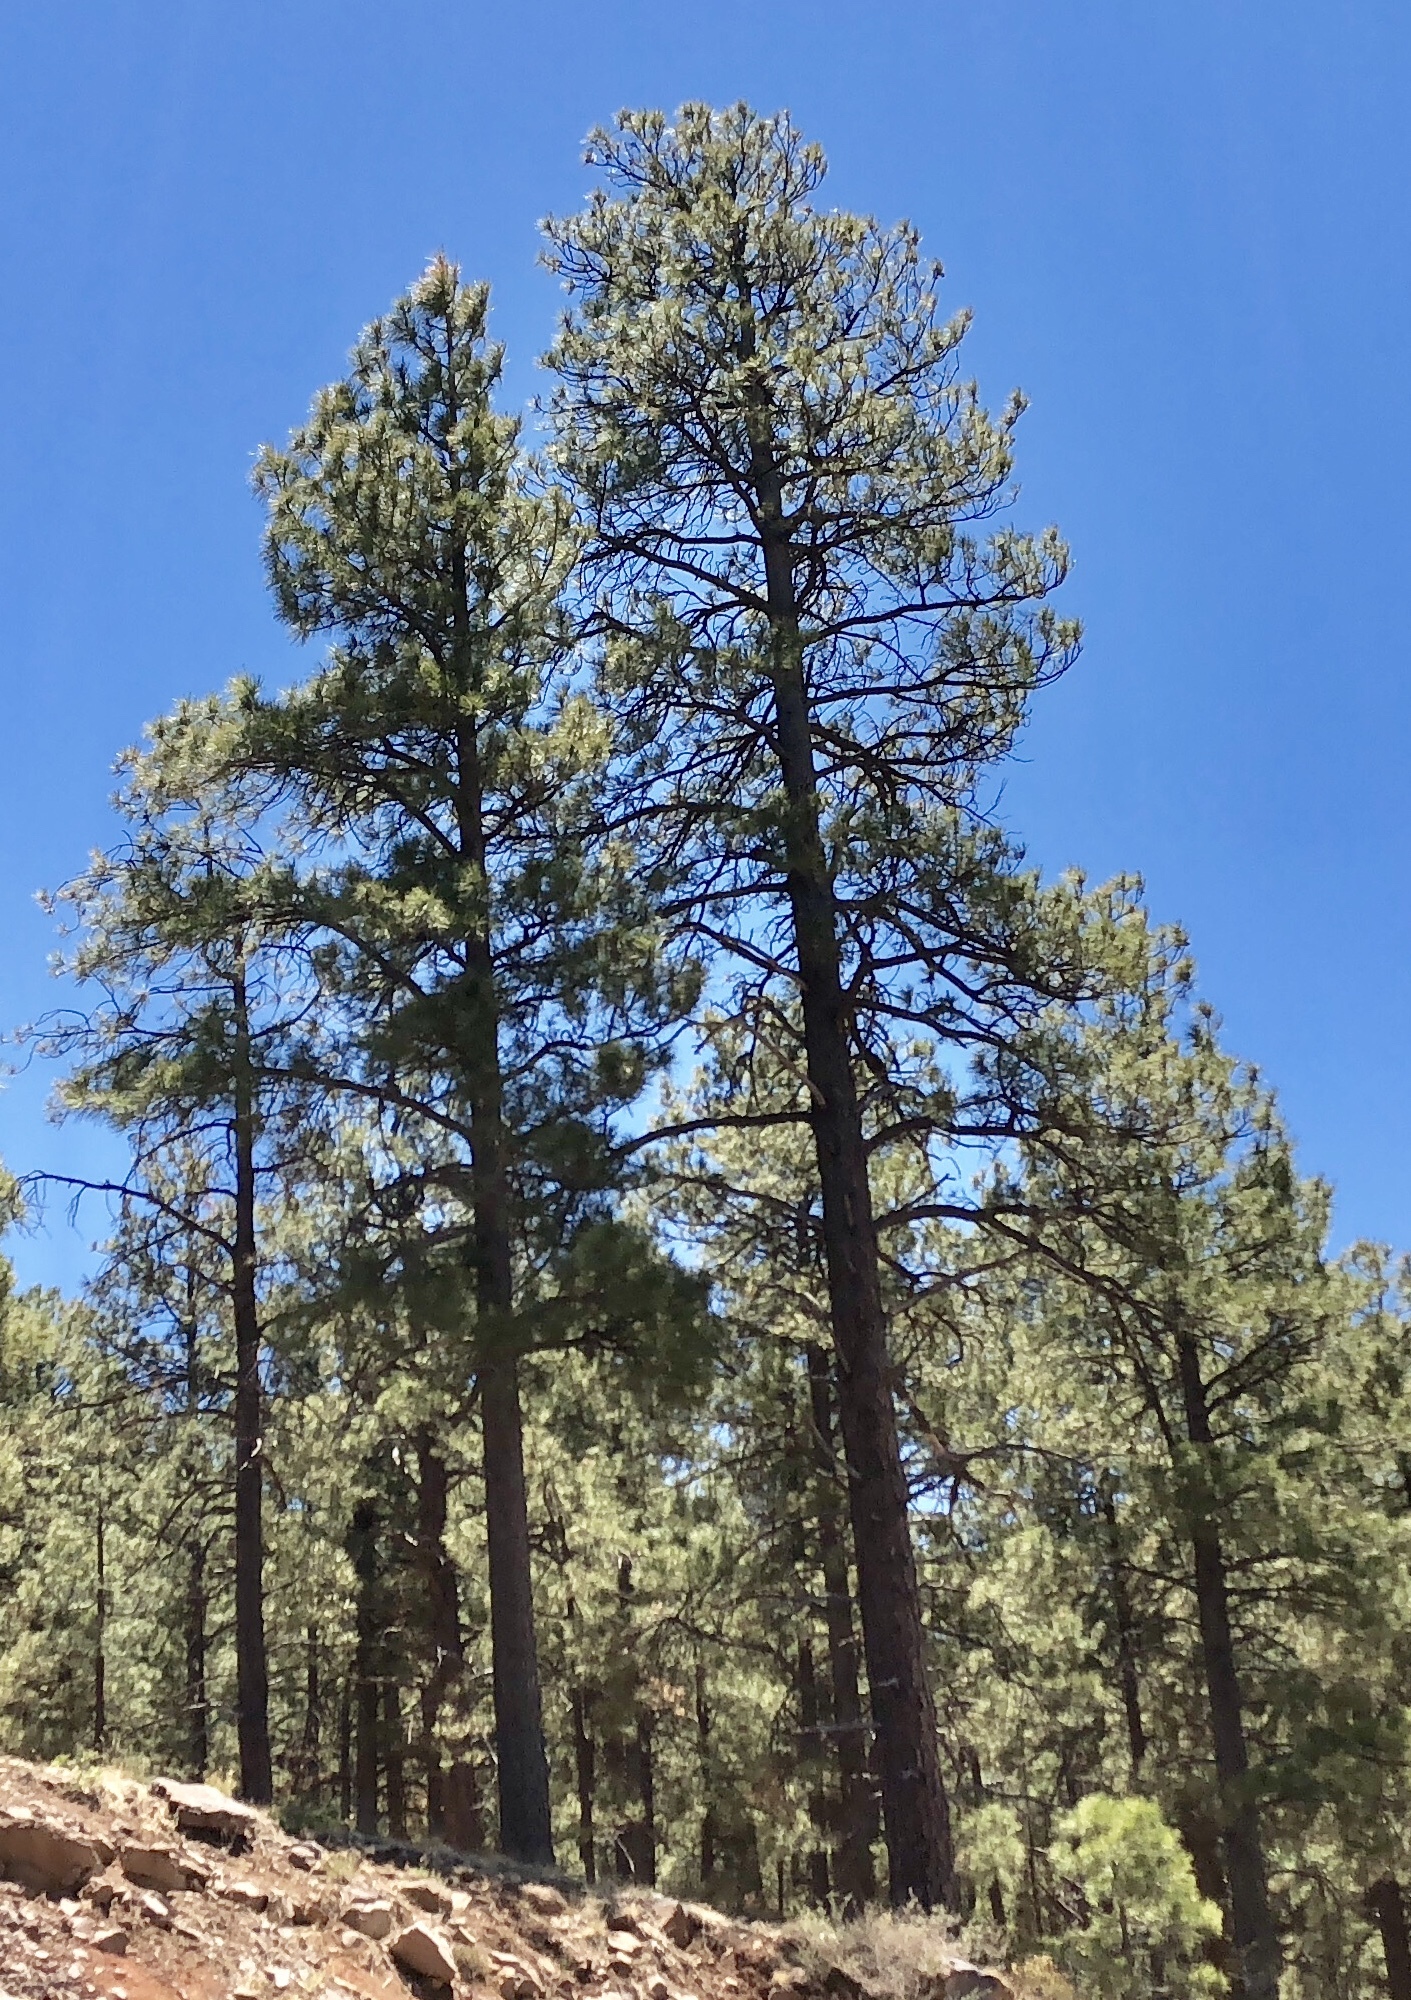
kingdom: Plantae
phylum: Tracheophyta
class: Pinopsida
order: Pinales
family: Pinaceae
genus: Pinus
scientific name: Pinus ponderosa
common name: Western yellow-pine
